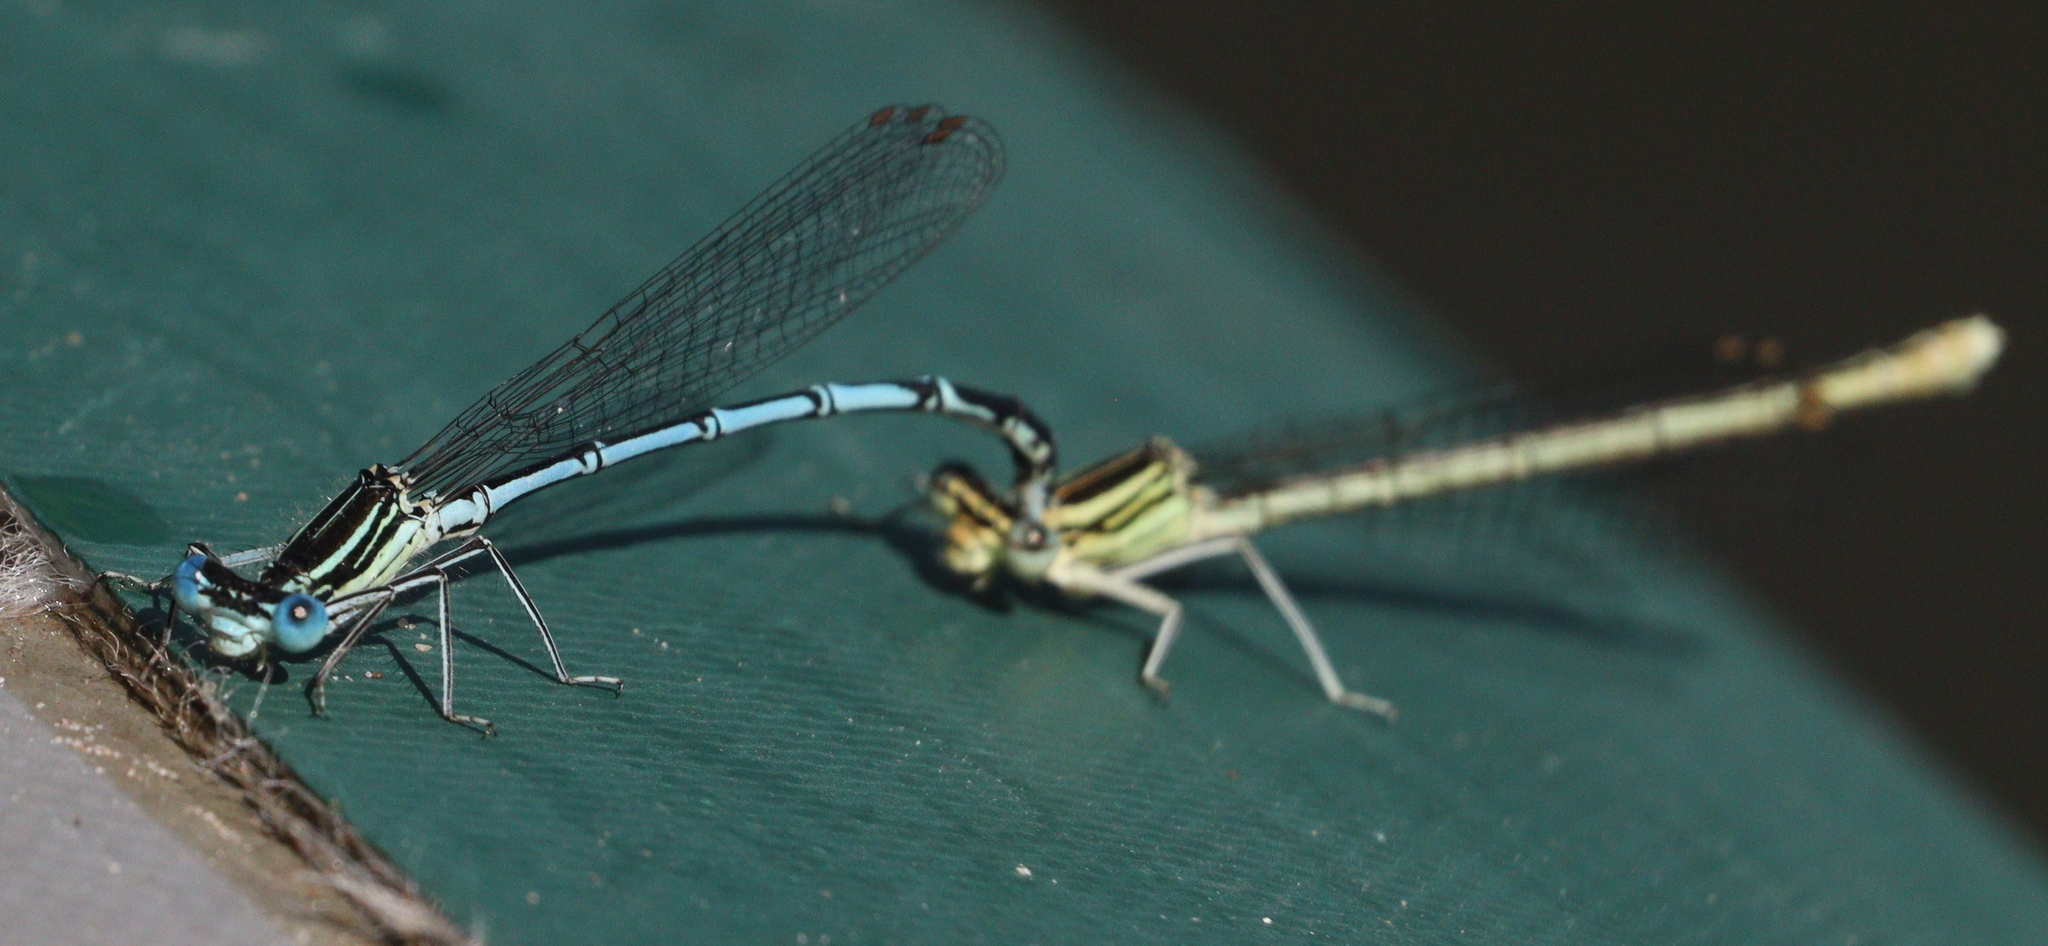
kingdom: Animalia
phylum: Arthropoda
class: Insecta
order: Odonata
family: Platycnemididae
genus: Platycnemis
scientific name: Platycnemis pennipes
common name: White-legged damselfly
